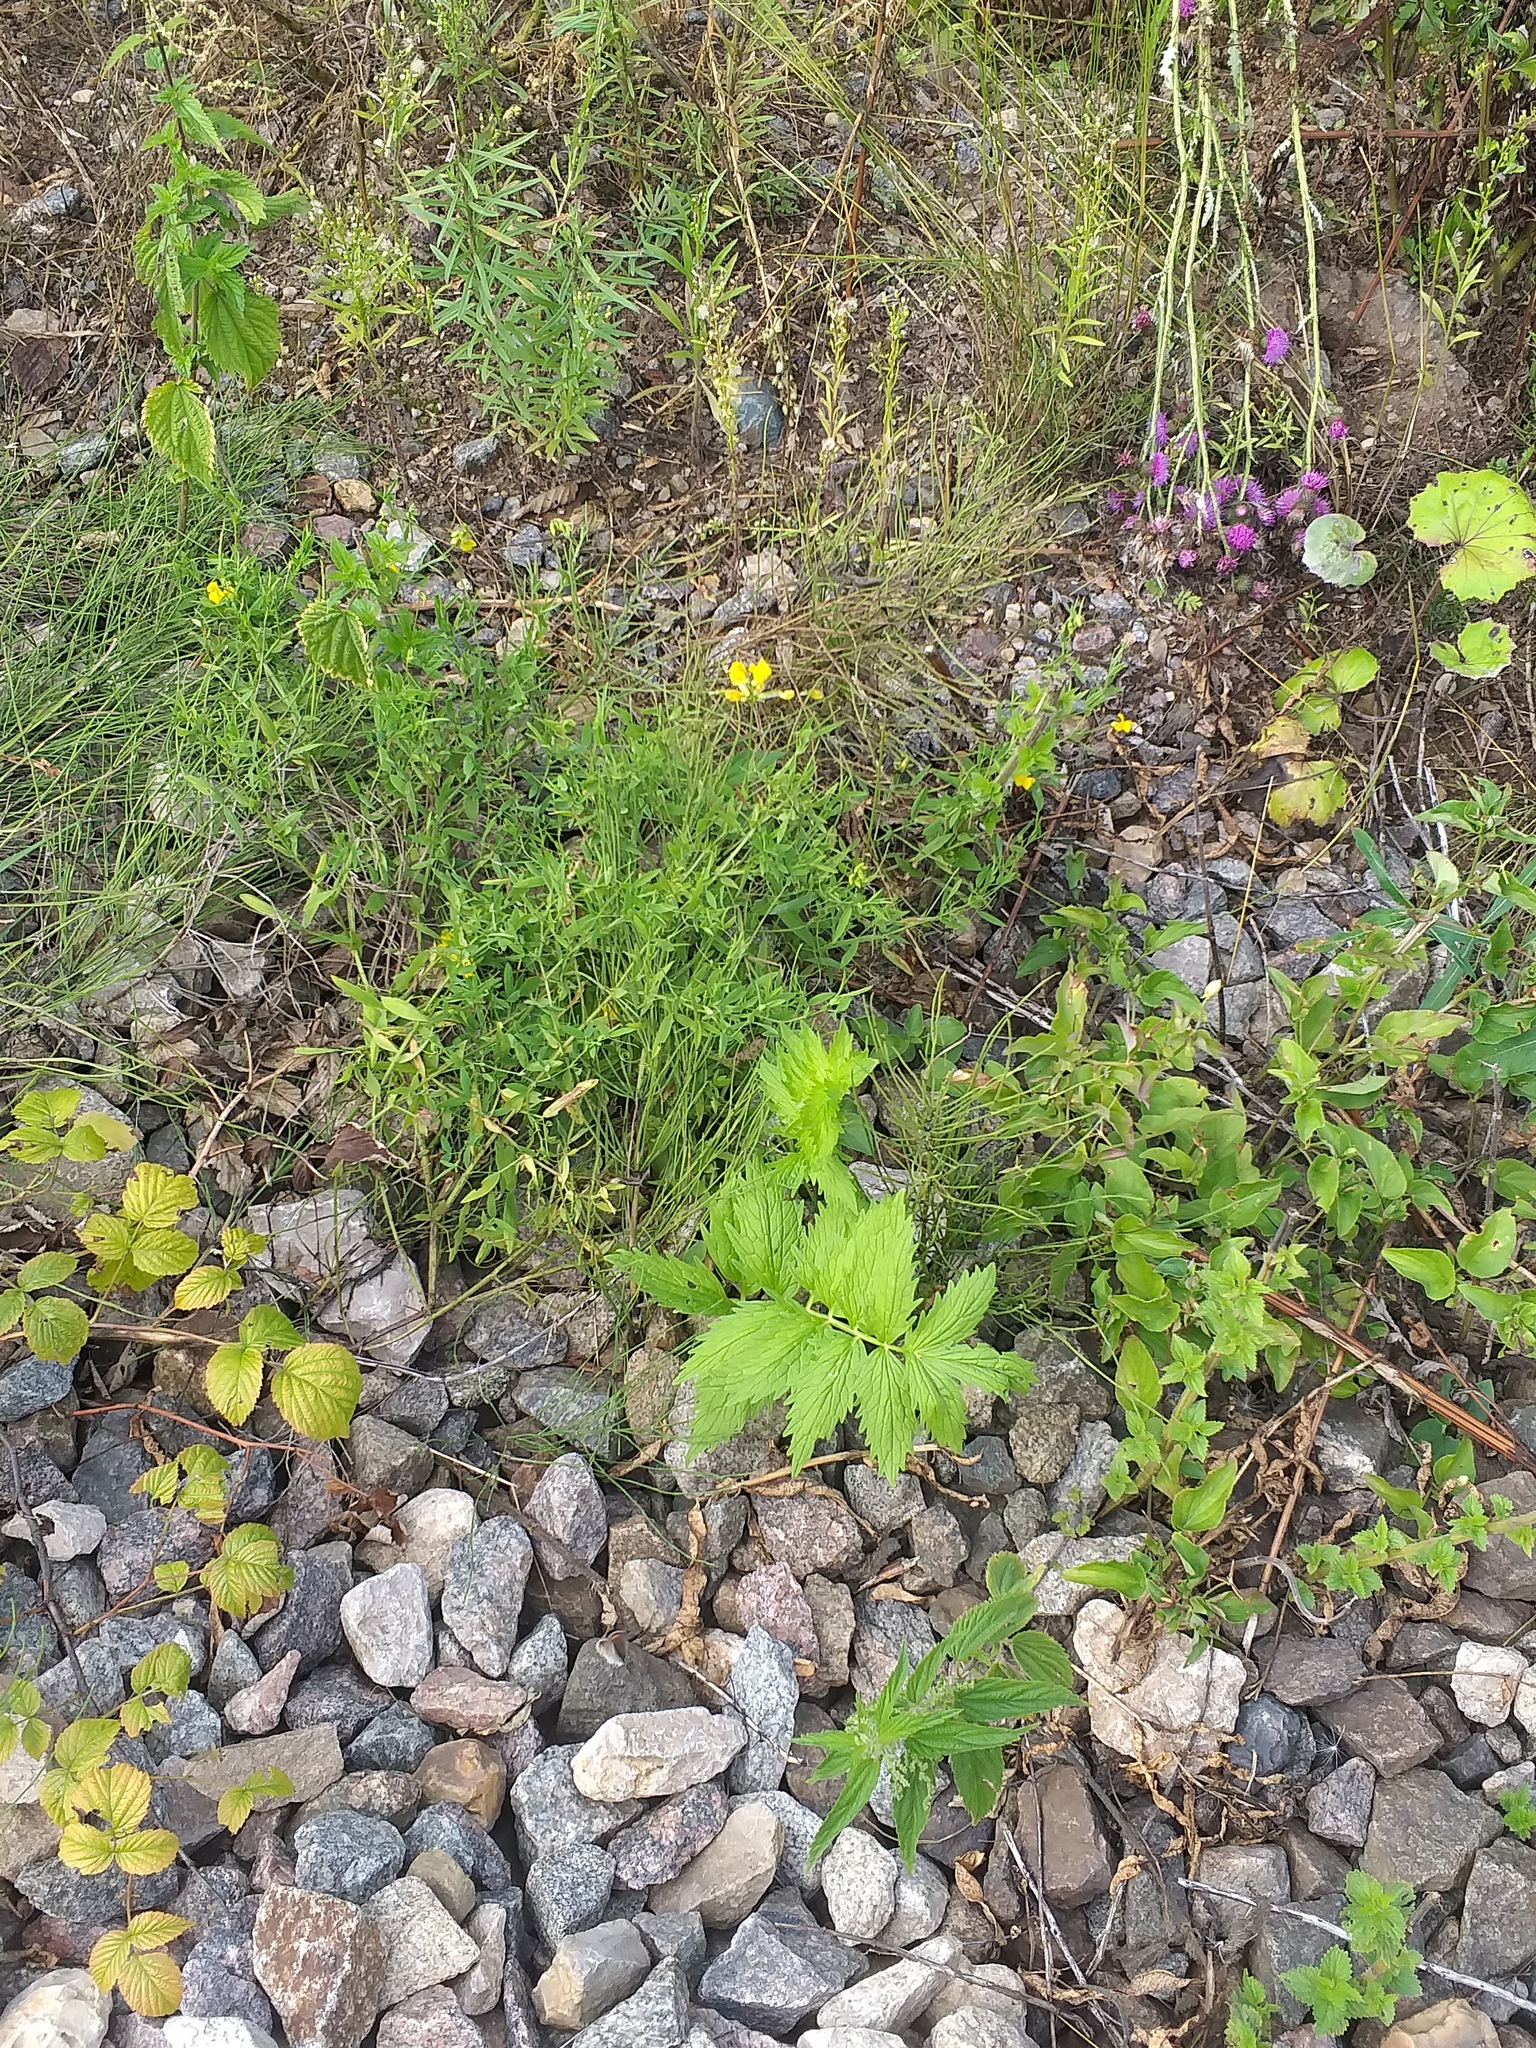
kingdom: Plantae
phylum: Tracheophyta
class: Magnoliopsida
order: Dipsacales
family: Caprifoliaceae
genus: Valeriana
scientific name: Valeriana officinalis
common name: Common valerian
